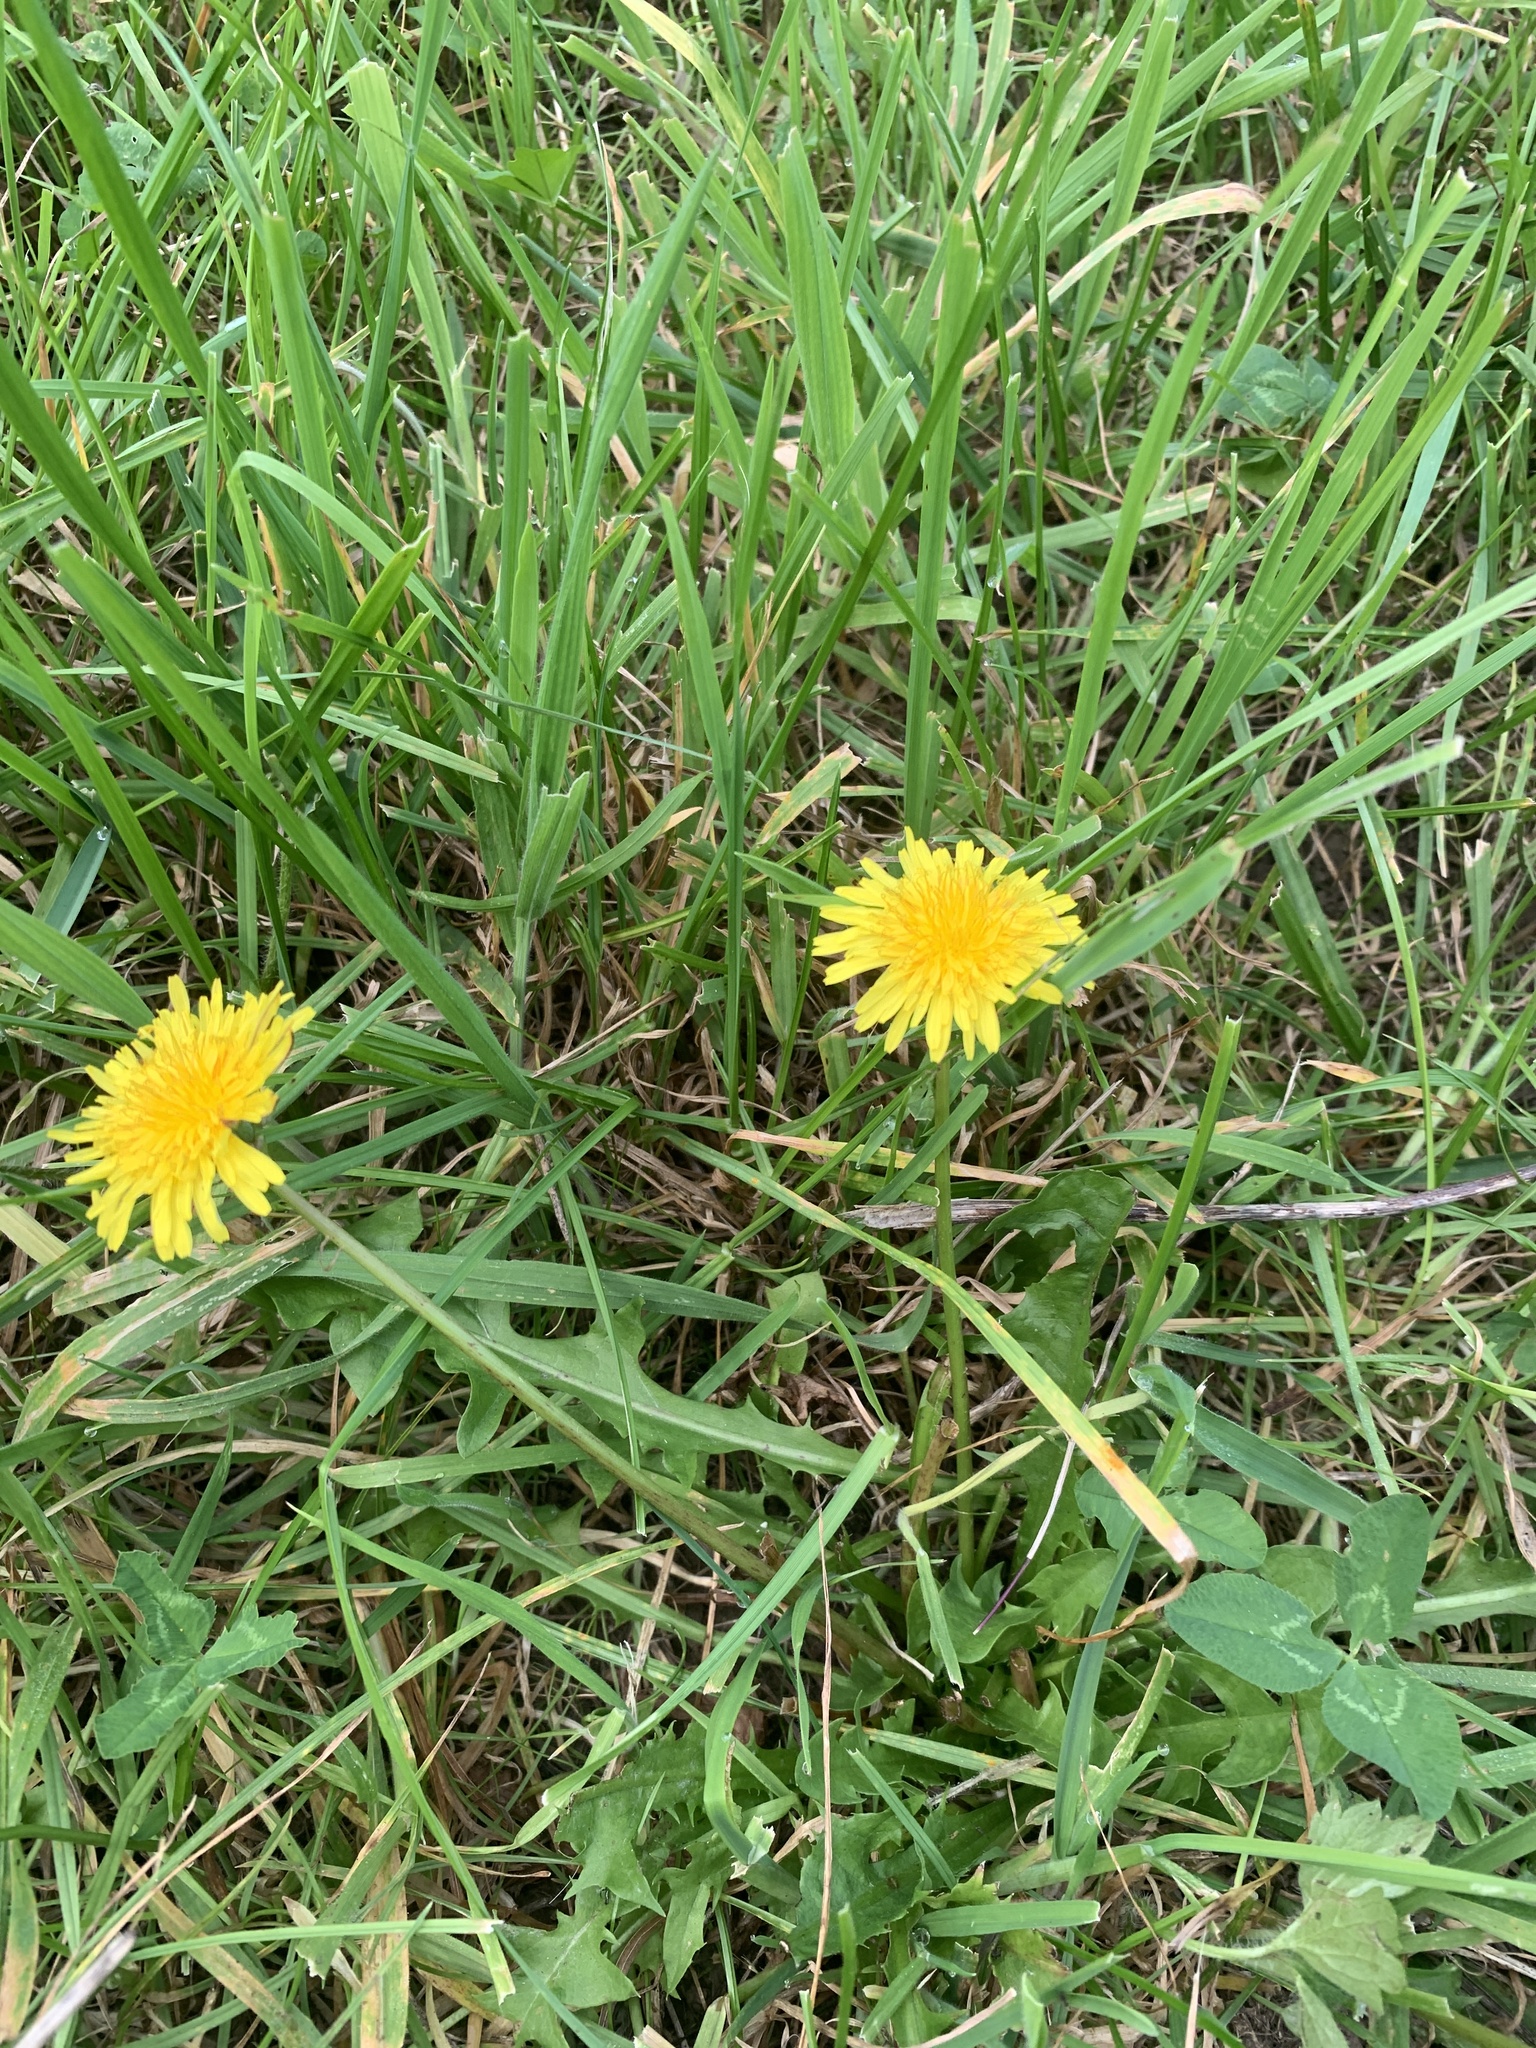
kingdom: Plantae
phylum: Tracheophyta
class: Magnoliopsida
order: Asterales
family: Asteraceae
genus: Taraxacum
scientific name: Taraxacum officinale
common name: Common dandelion
